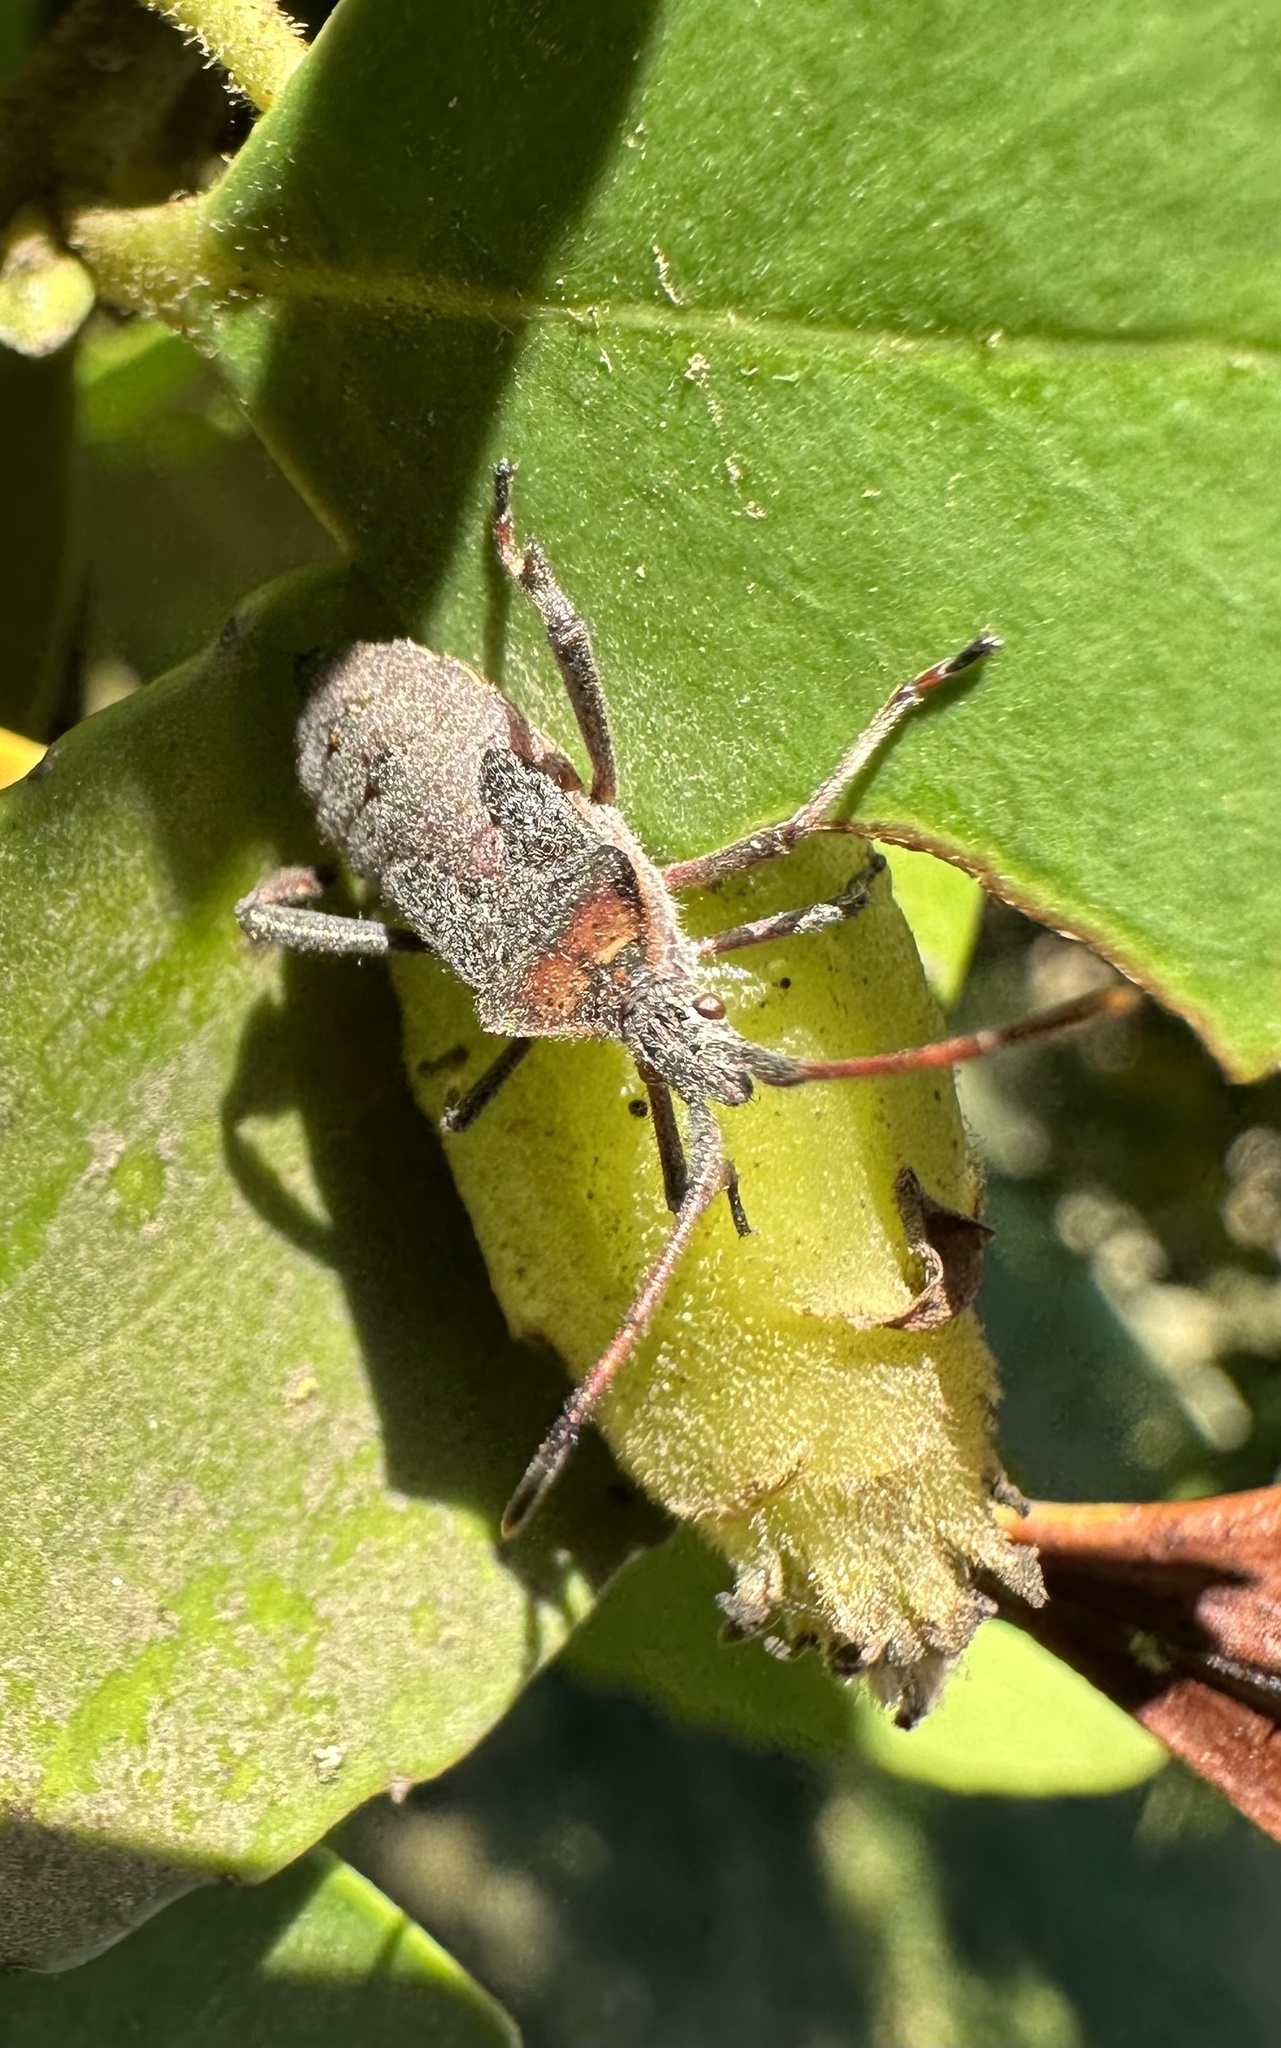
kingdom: Animalia
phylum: Arthropoda
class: Insecta
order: Hemiptera
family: Coreidae
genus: Leptoglossus
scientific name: Leptoglossus chilensis
